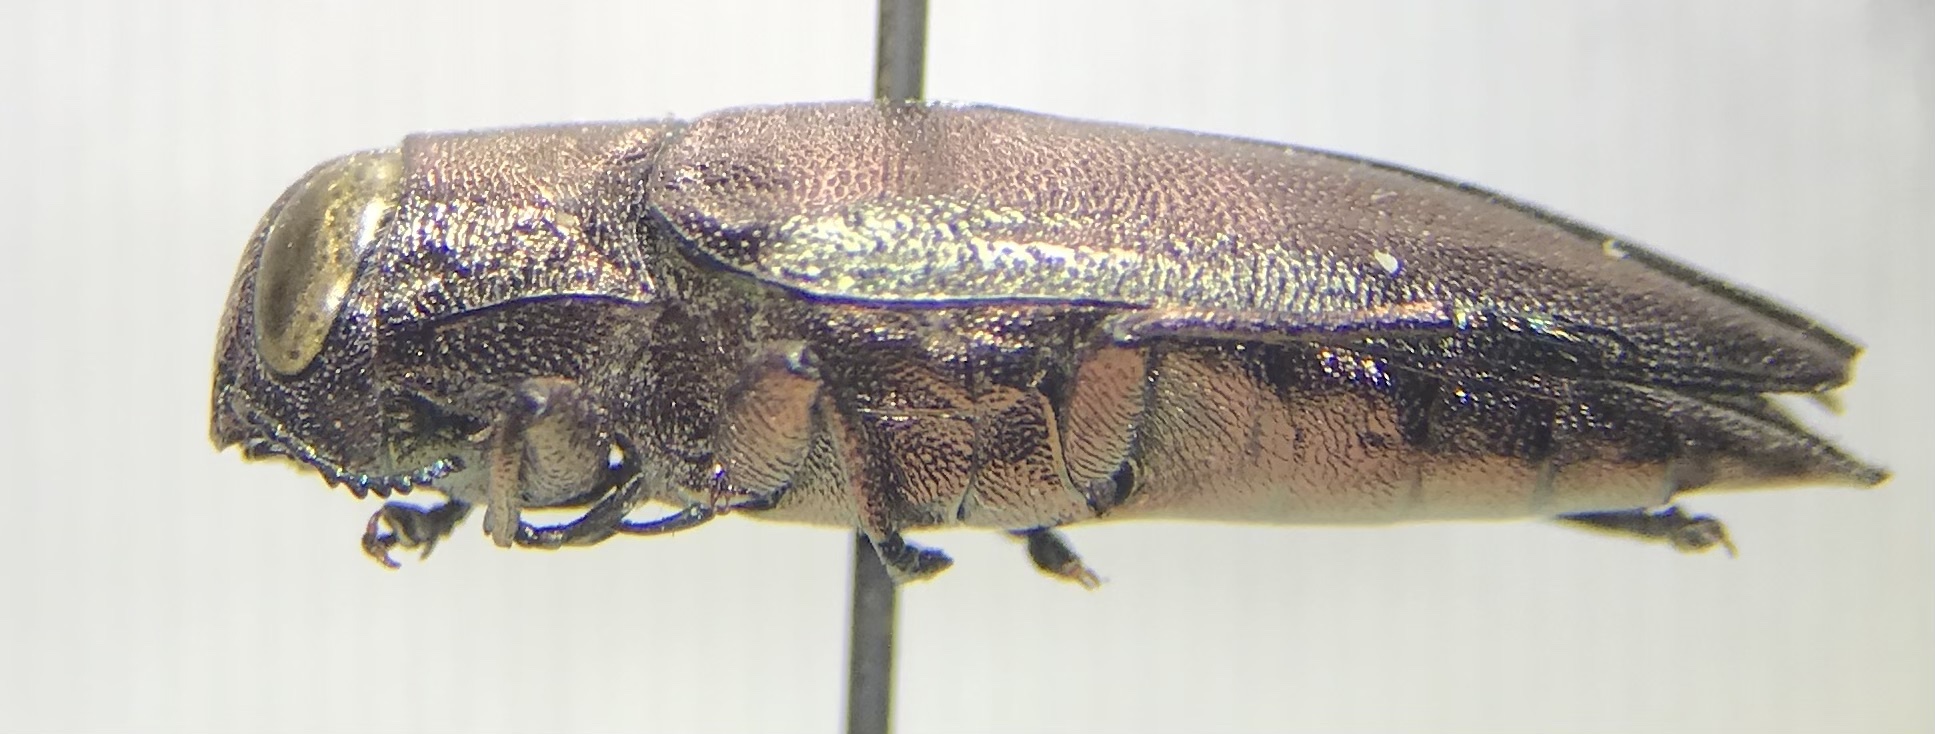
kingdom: Animalia
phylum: Arthropoda
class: Insecta
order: Coleoptera
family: Buprestidae
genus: Actenodes
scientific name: Actenodes davidi
